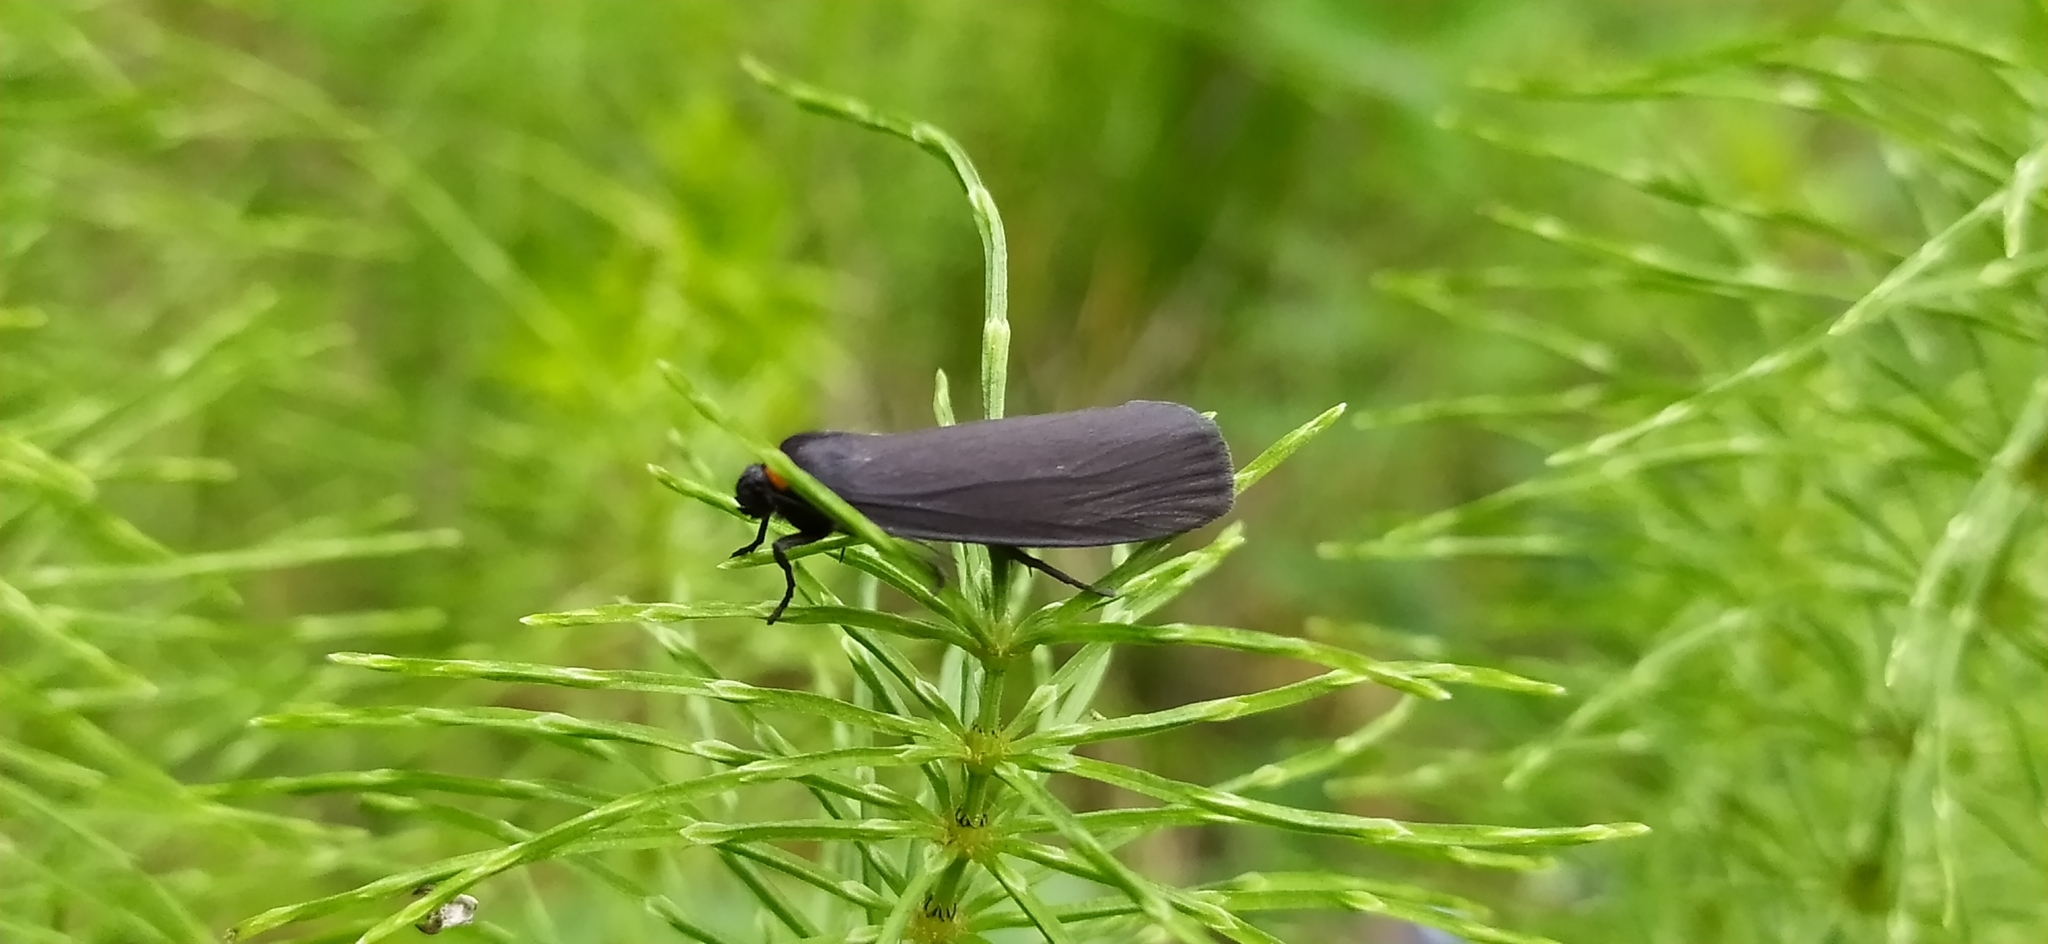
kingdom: Animalia
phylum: Arthropoda
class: Insecta
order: Lepidoptera
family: Erebidae
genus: Atolmis
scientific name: Atolmis rubricollis
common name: Red-necked footman
